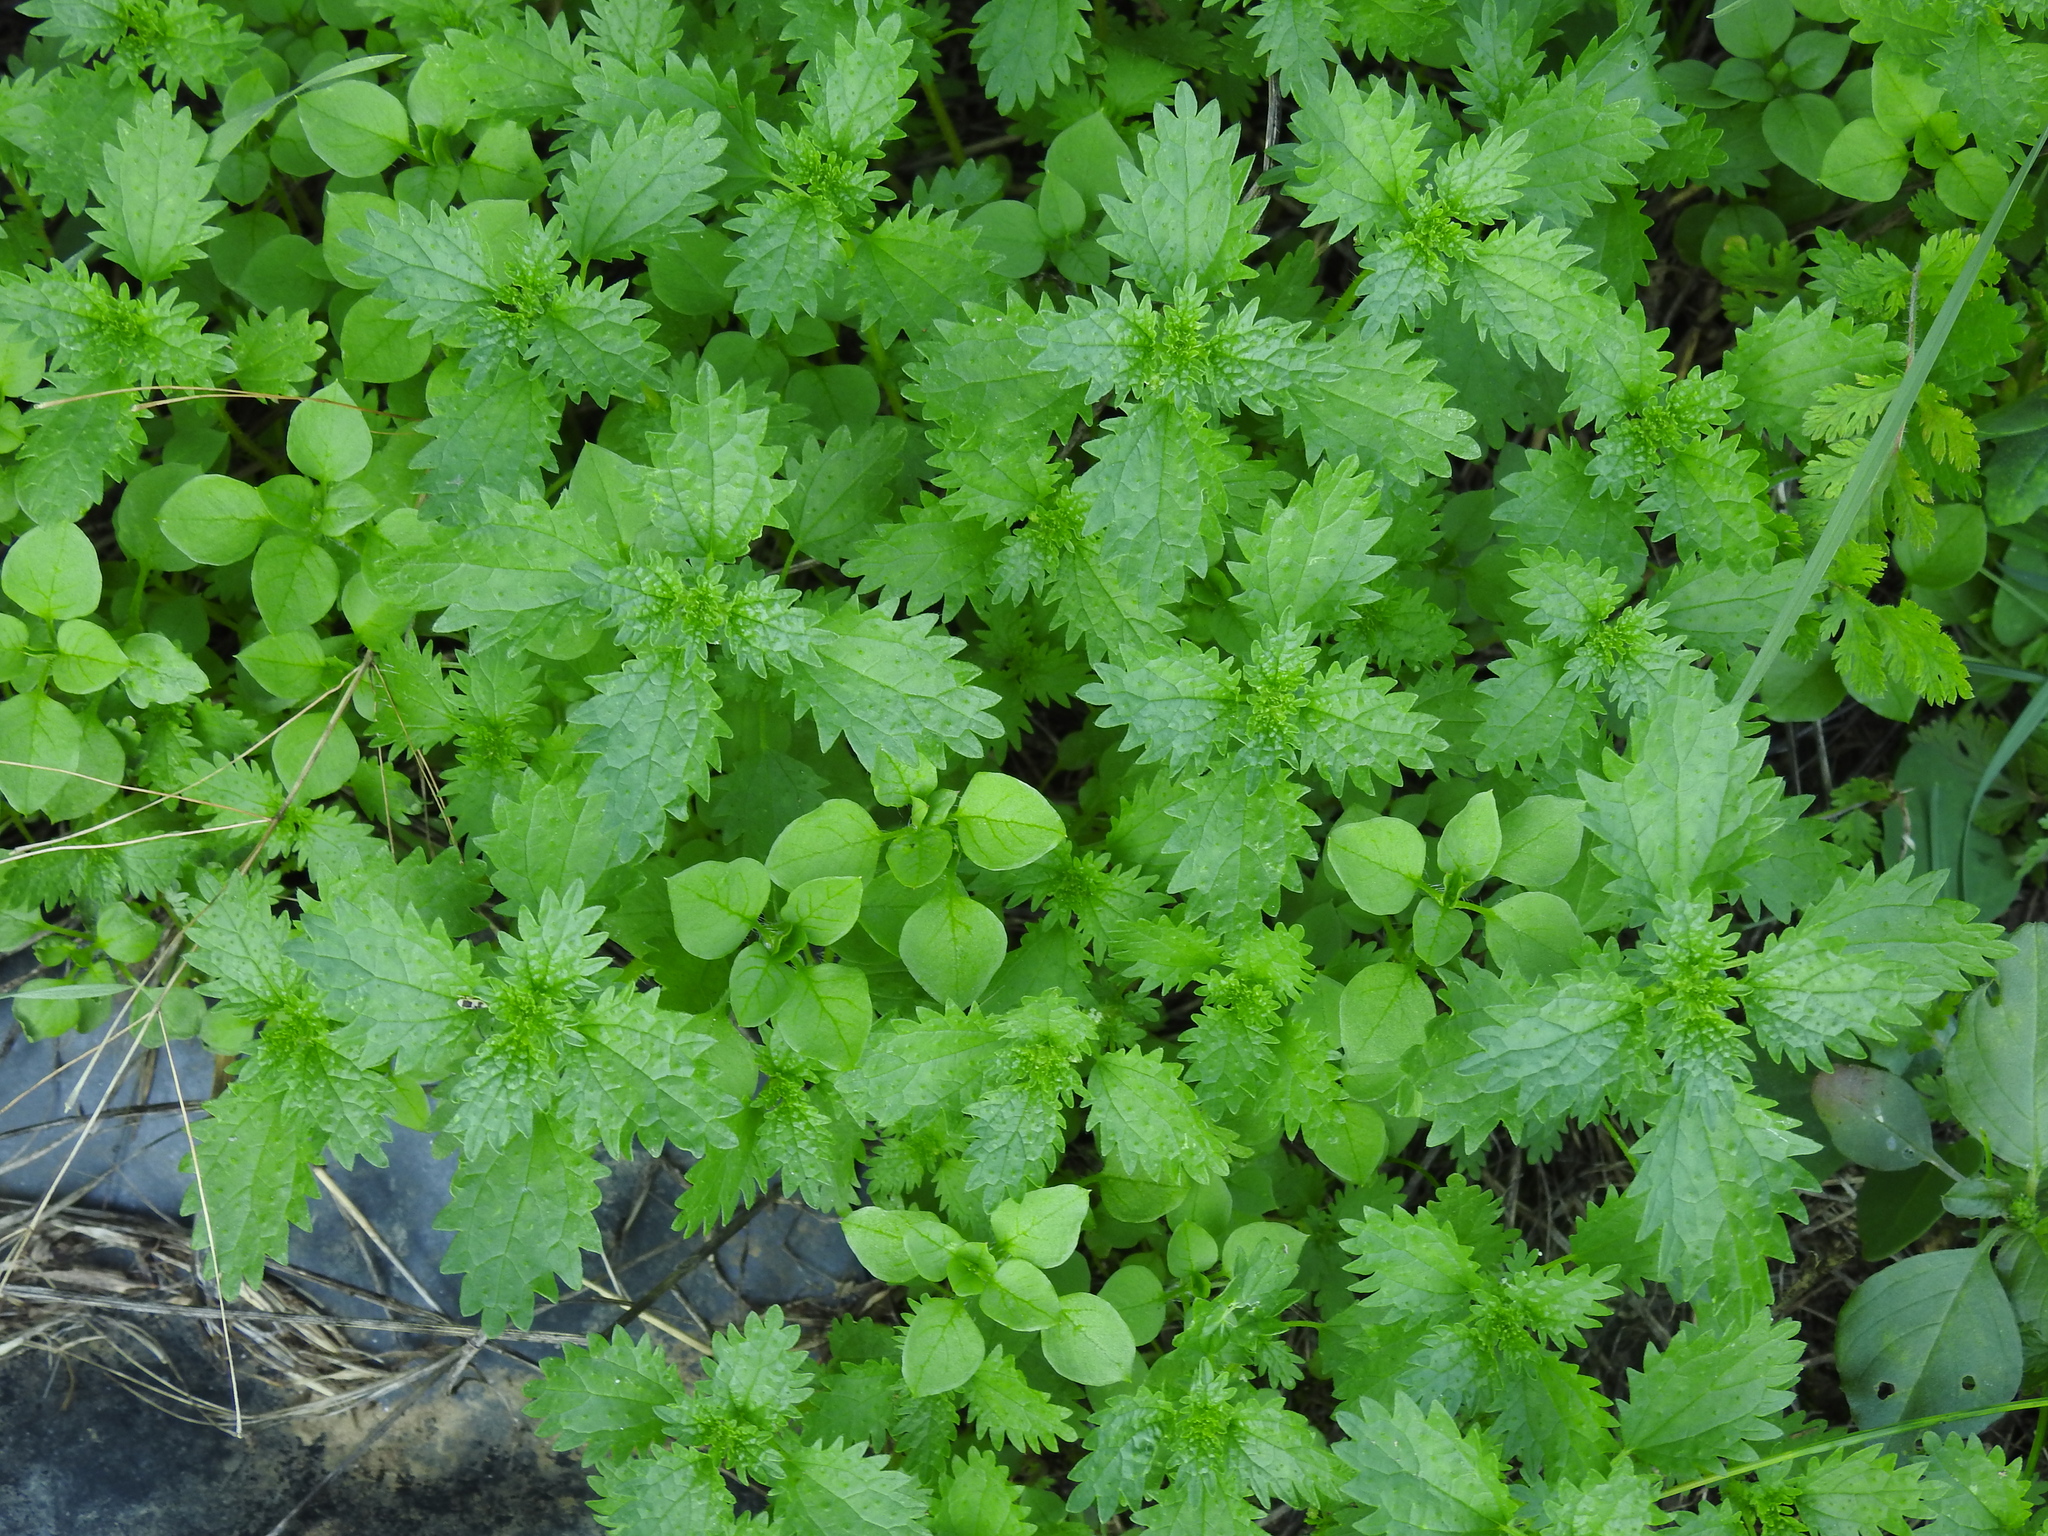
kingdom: Plantae
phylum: Tracheophyta
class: Magnoliopsida
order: Rosales
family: Urticaceae
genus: Urtica
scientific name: Urtica urens
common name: Dwarf nettle
